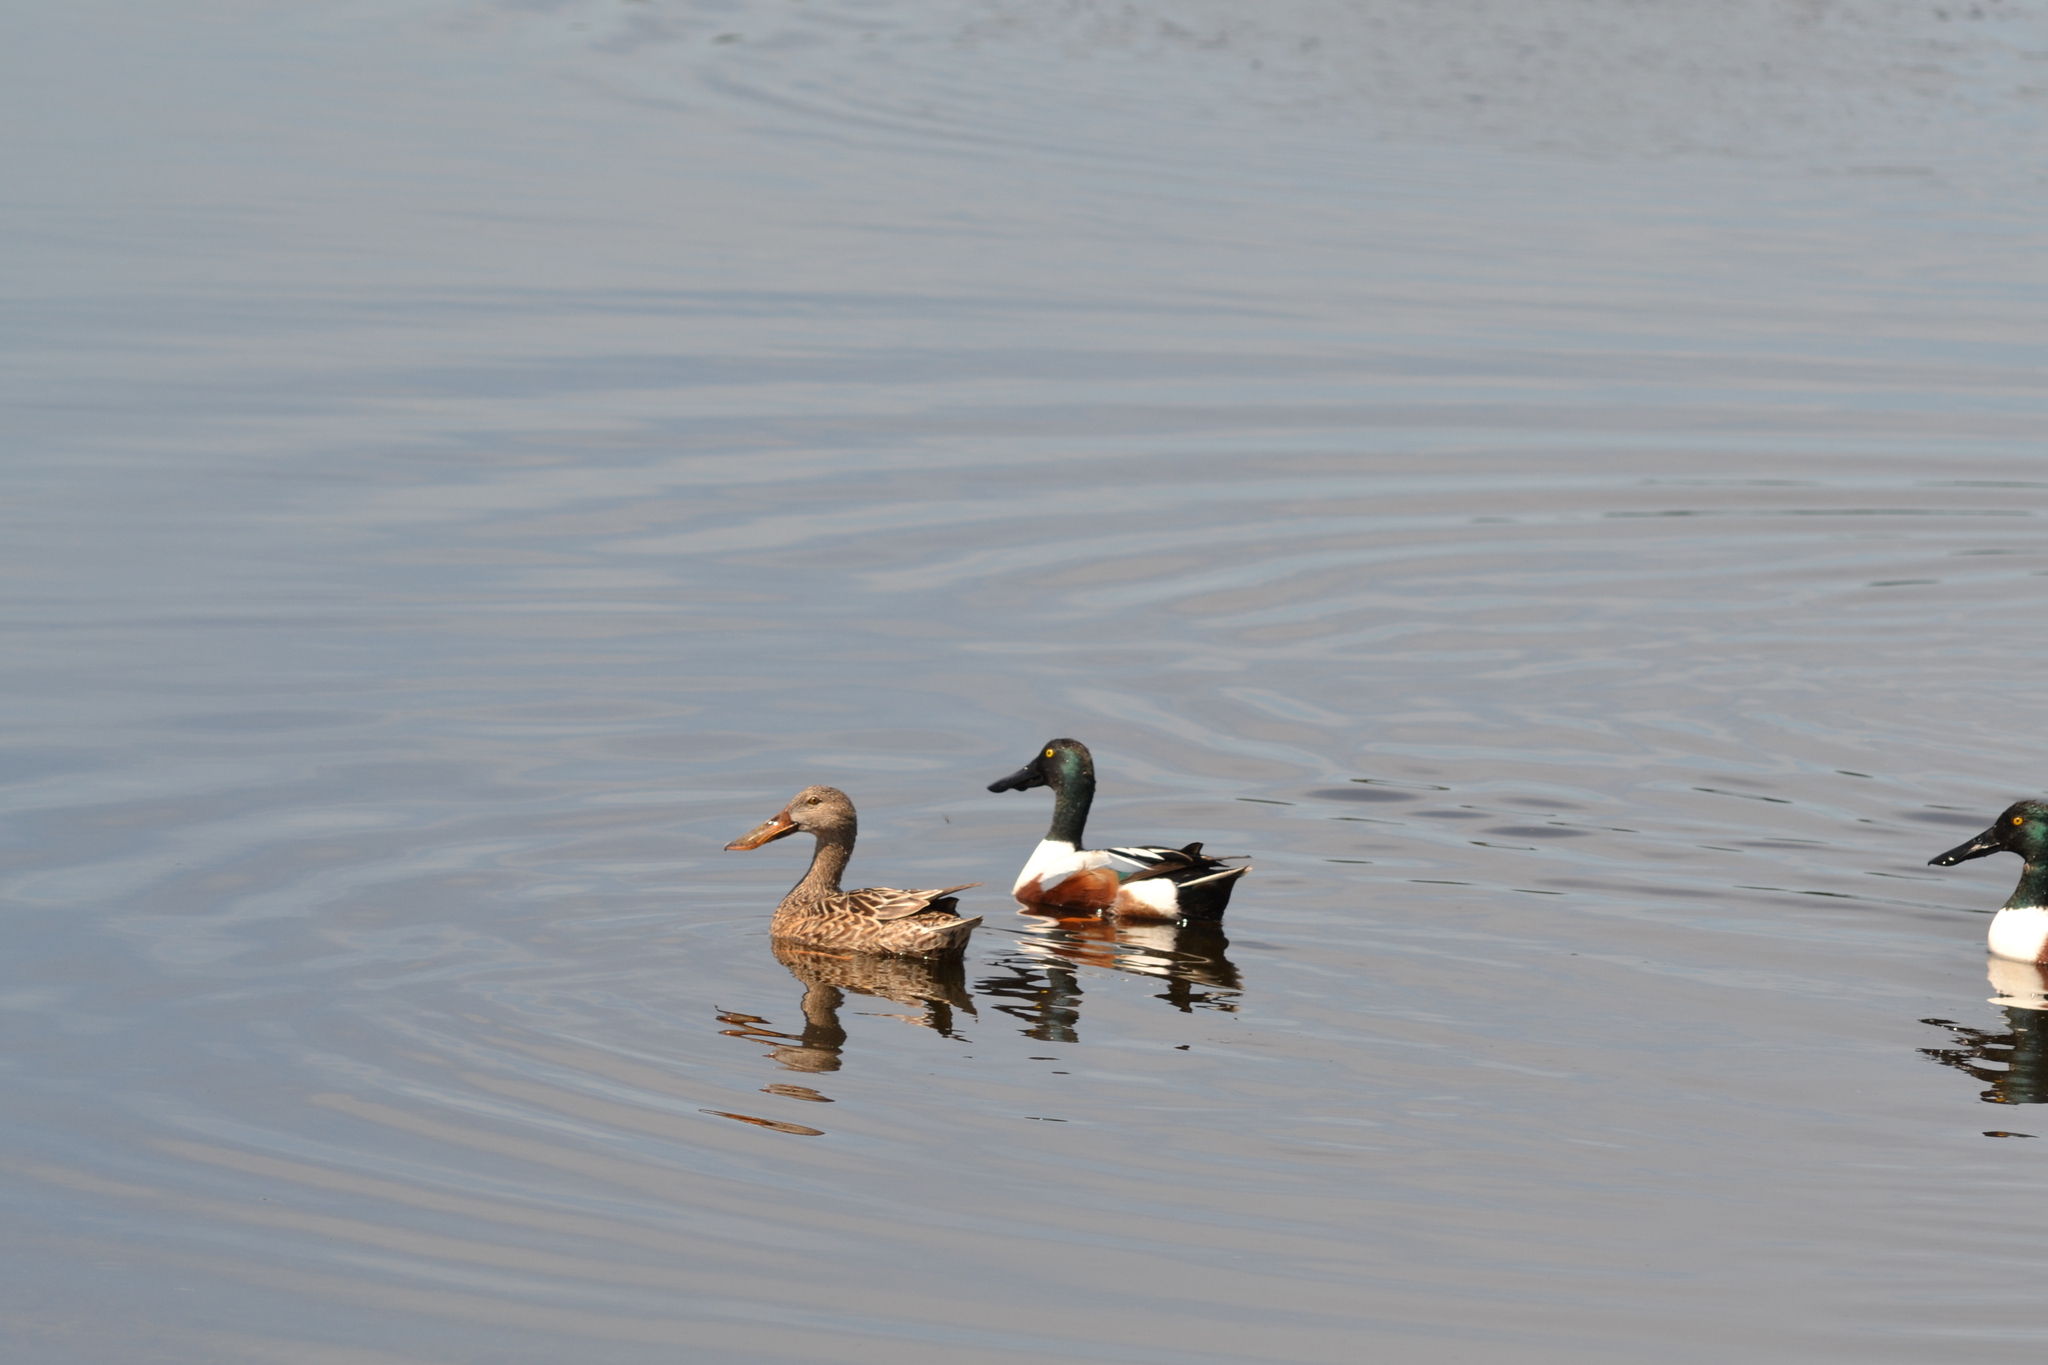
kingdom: Animalia
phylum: Chordata
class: Aves
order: Anseriformes
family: Anatidae
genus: Spatula
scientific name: Spatula clypeata
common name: Northern shoveler
